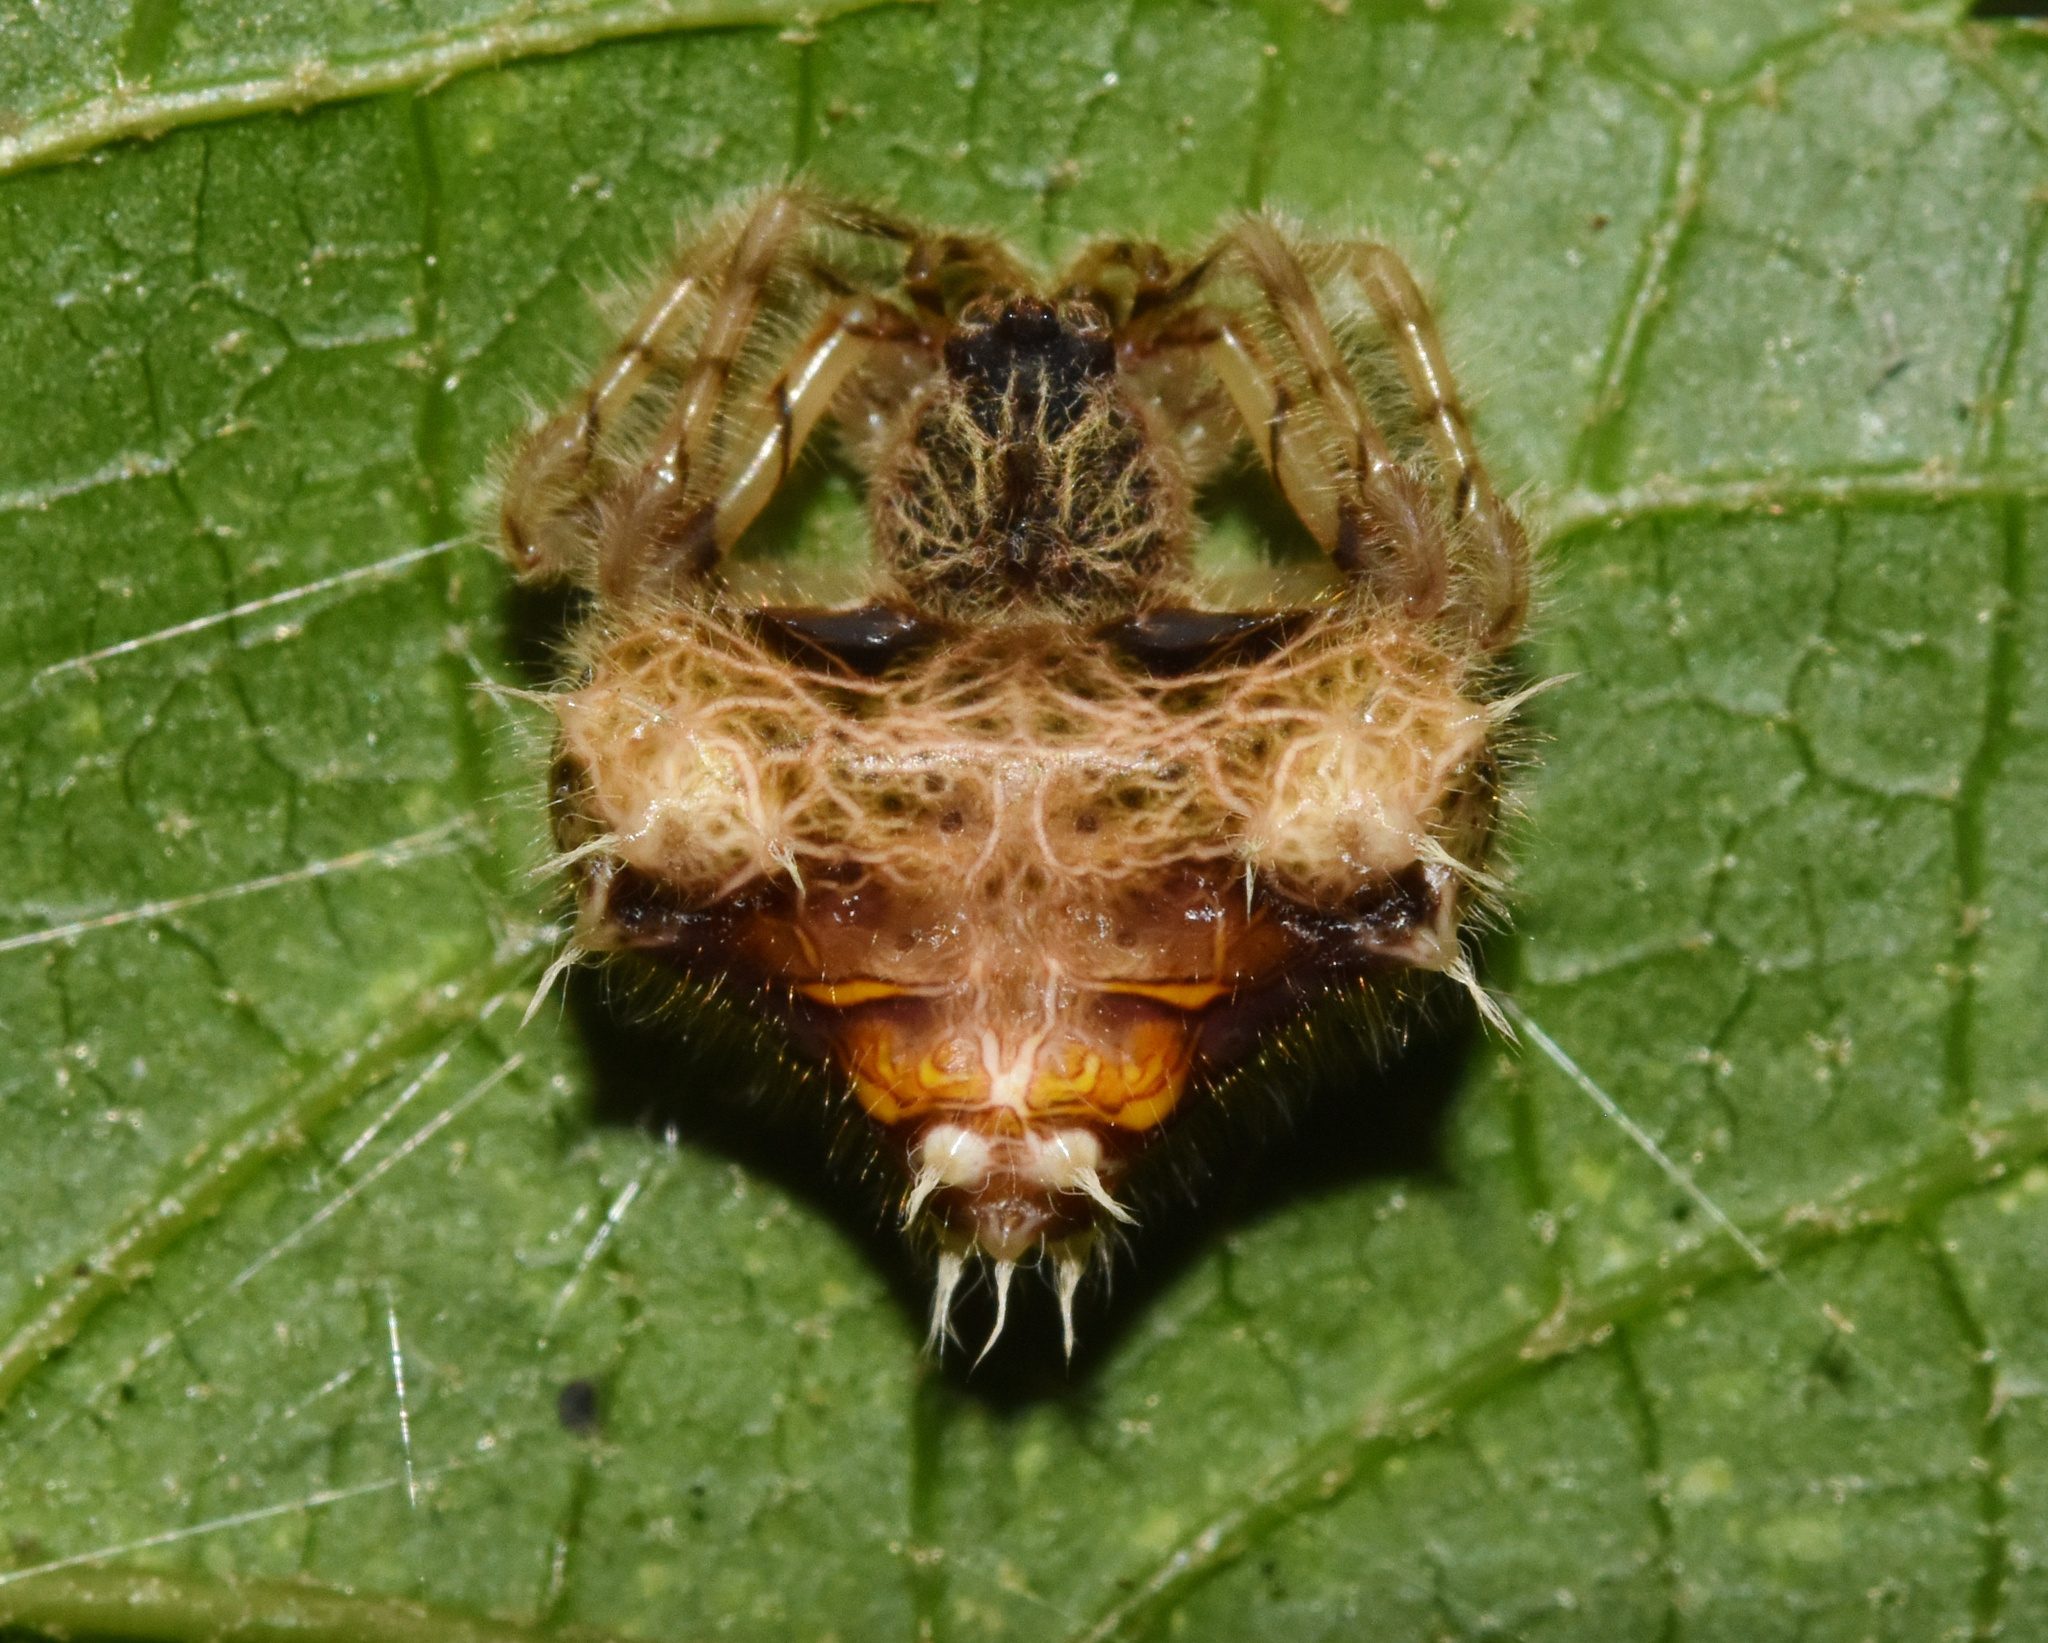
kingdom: Animalia
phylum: Arthropoda
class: Arachnida
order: Araneae
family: Araneidae
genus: Cladomelea
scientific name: Cladomelea debeeri
